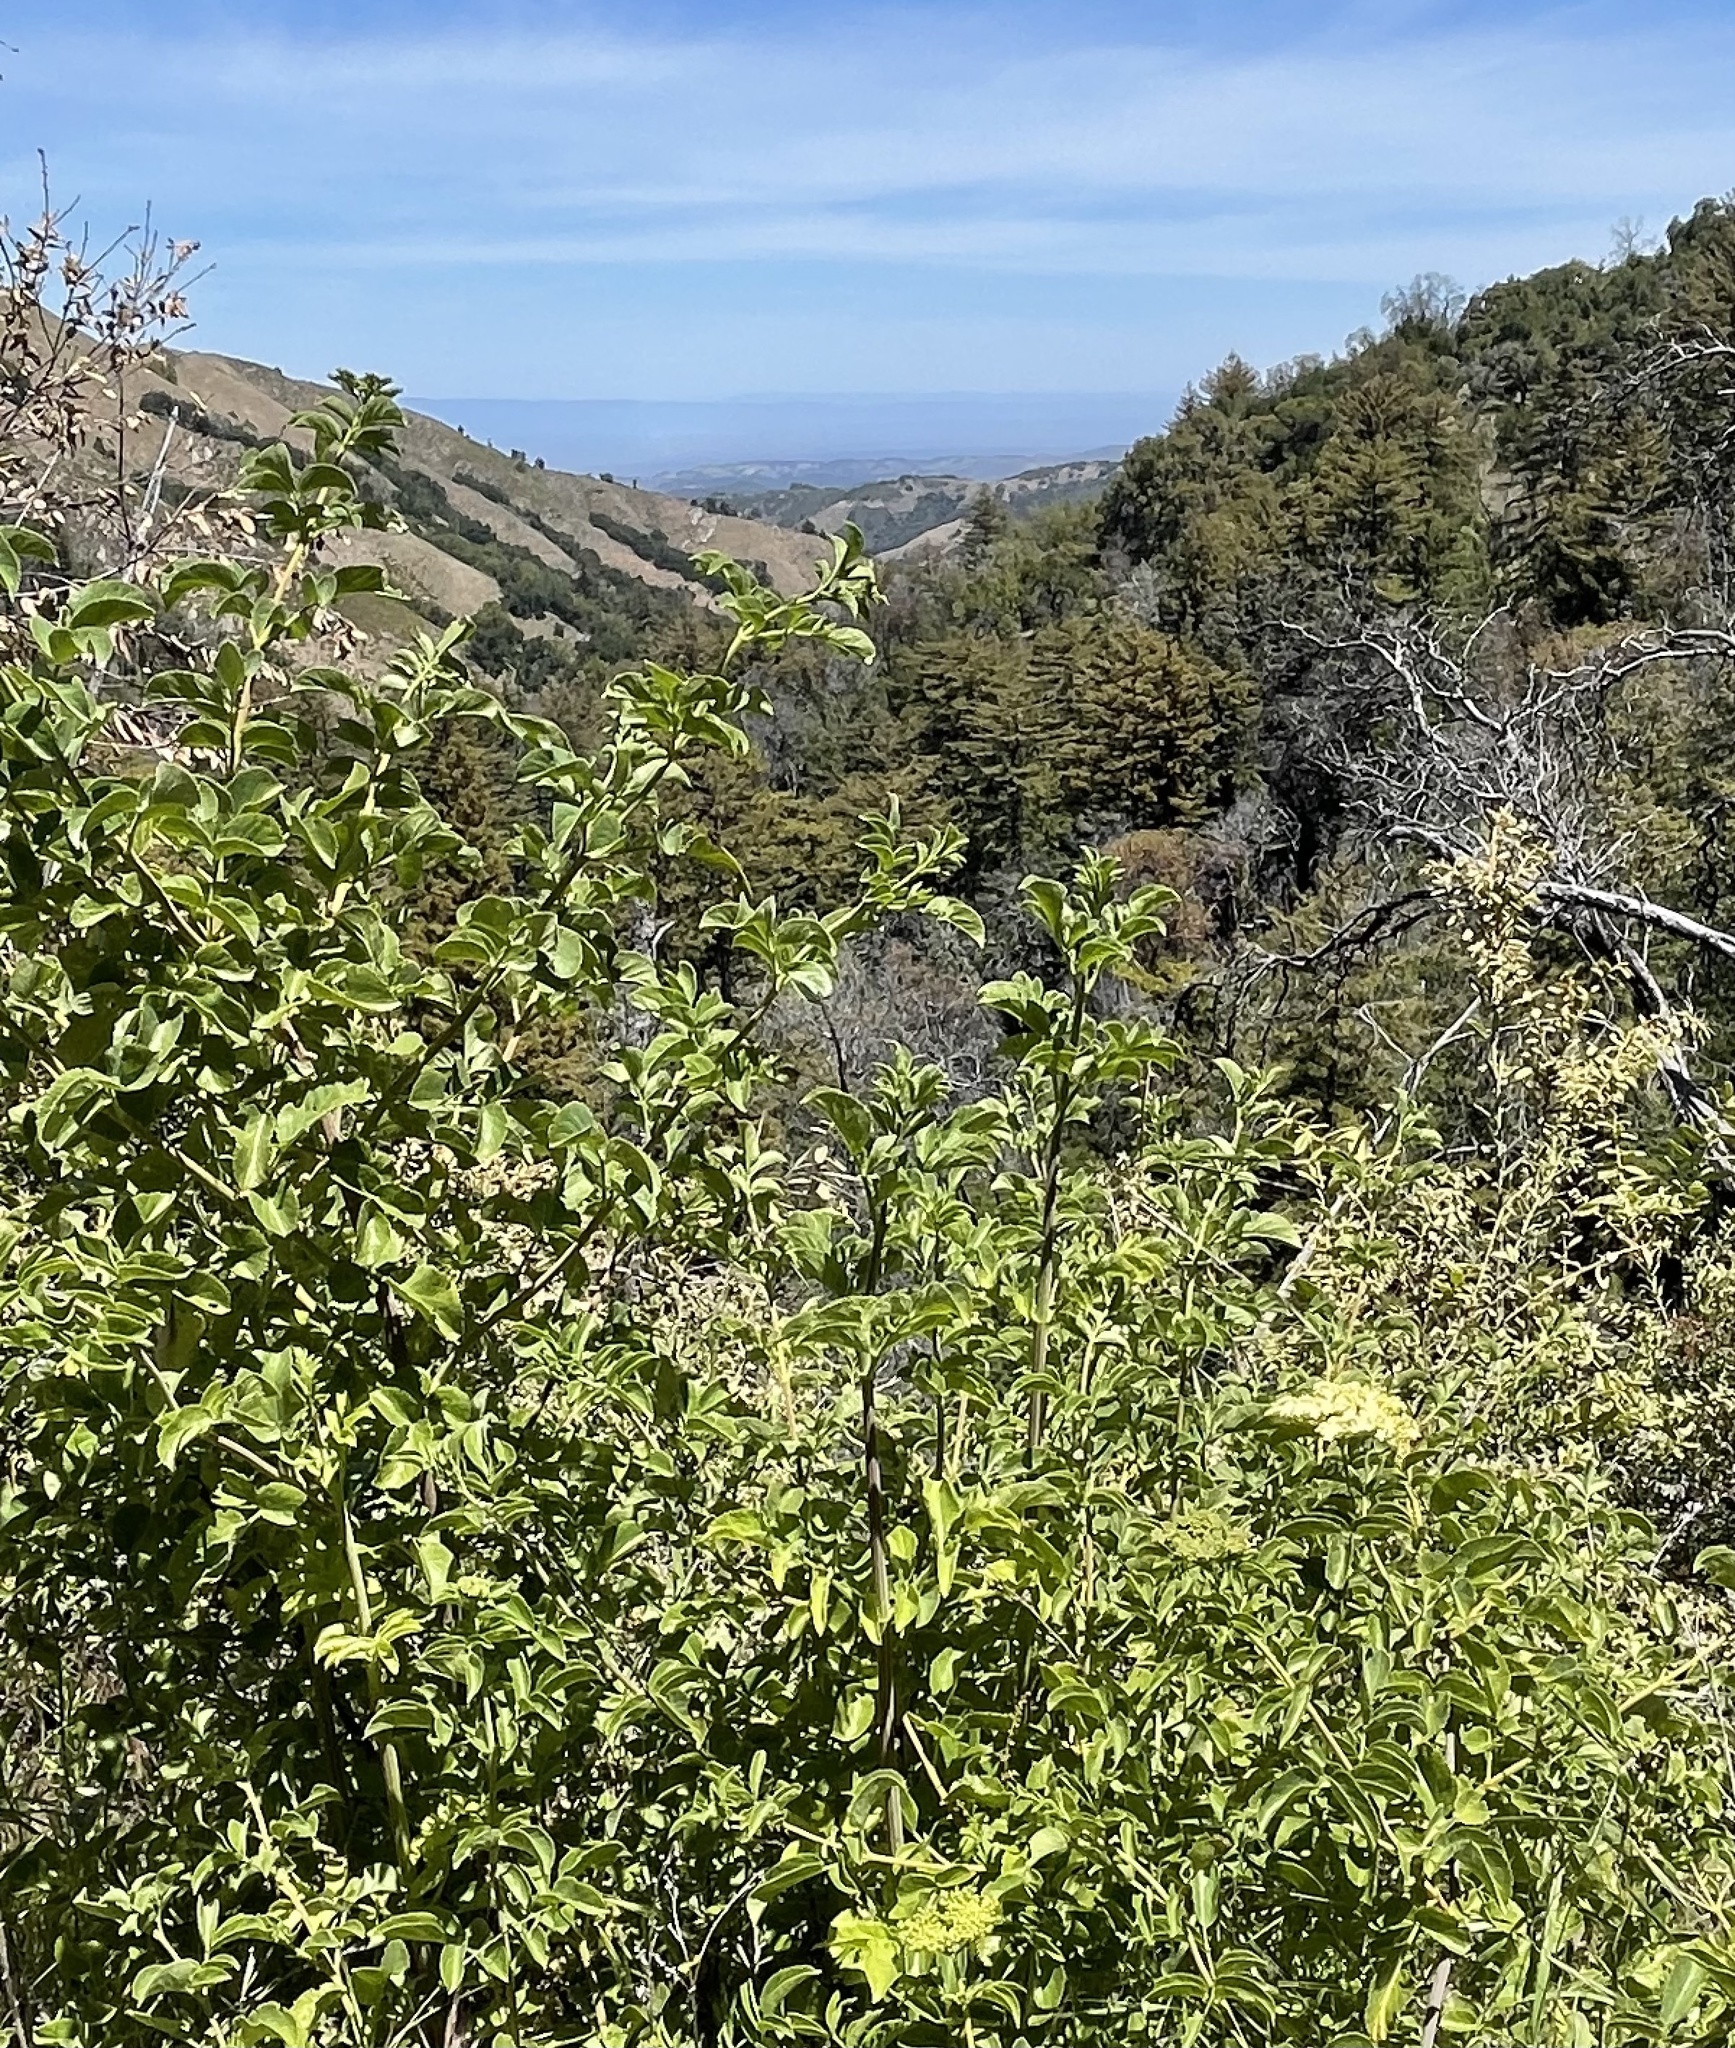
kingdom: Plantae
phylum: Tracheophyta
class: Magnoliopsida
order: Dipsacales
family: Viburnaceae
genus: Sambucus
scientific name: Sambucus cerulea
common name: Blue elder
